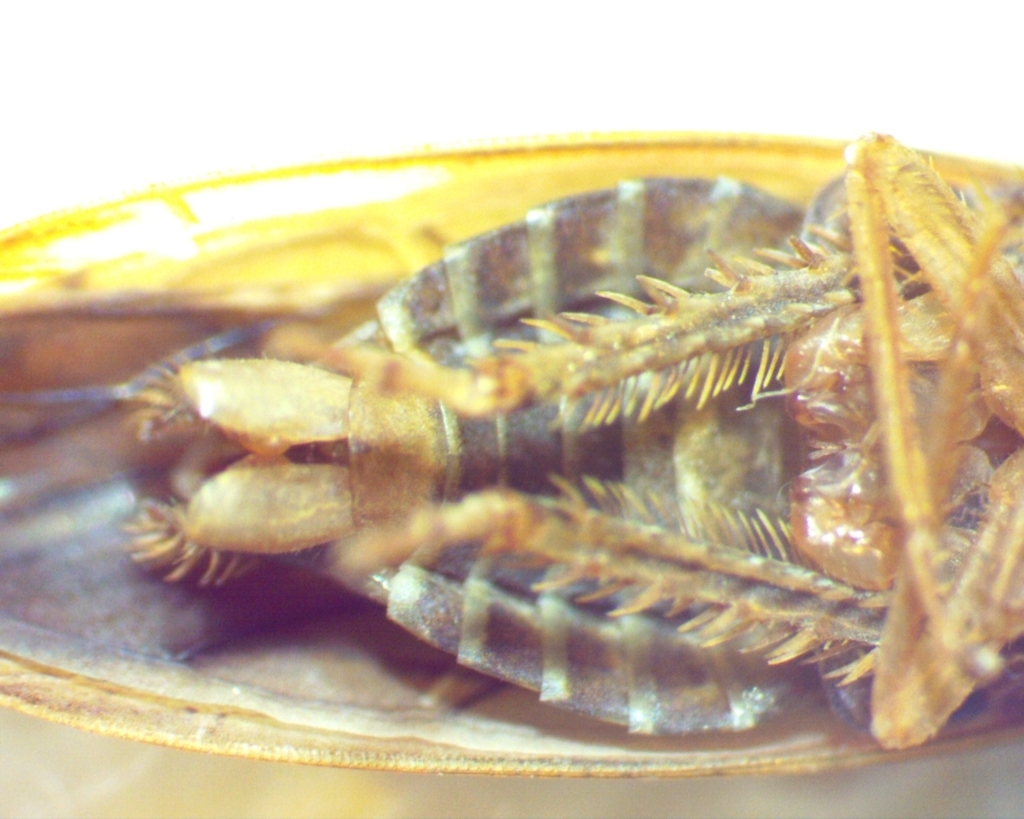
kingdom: Animalia
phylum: Arthropoda
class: Insecta
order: Hemiptera
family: Cicadellidae
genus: Ponana
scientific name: Ponana aenea
